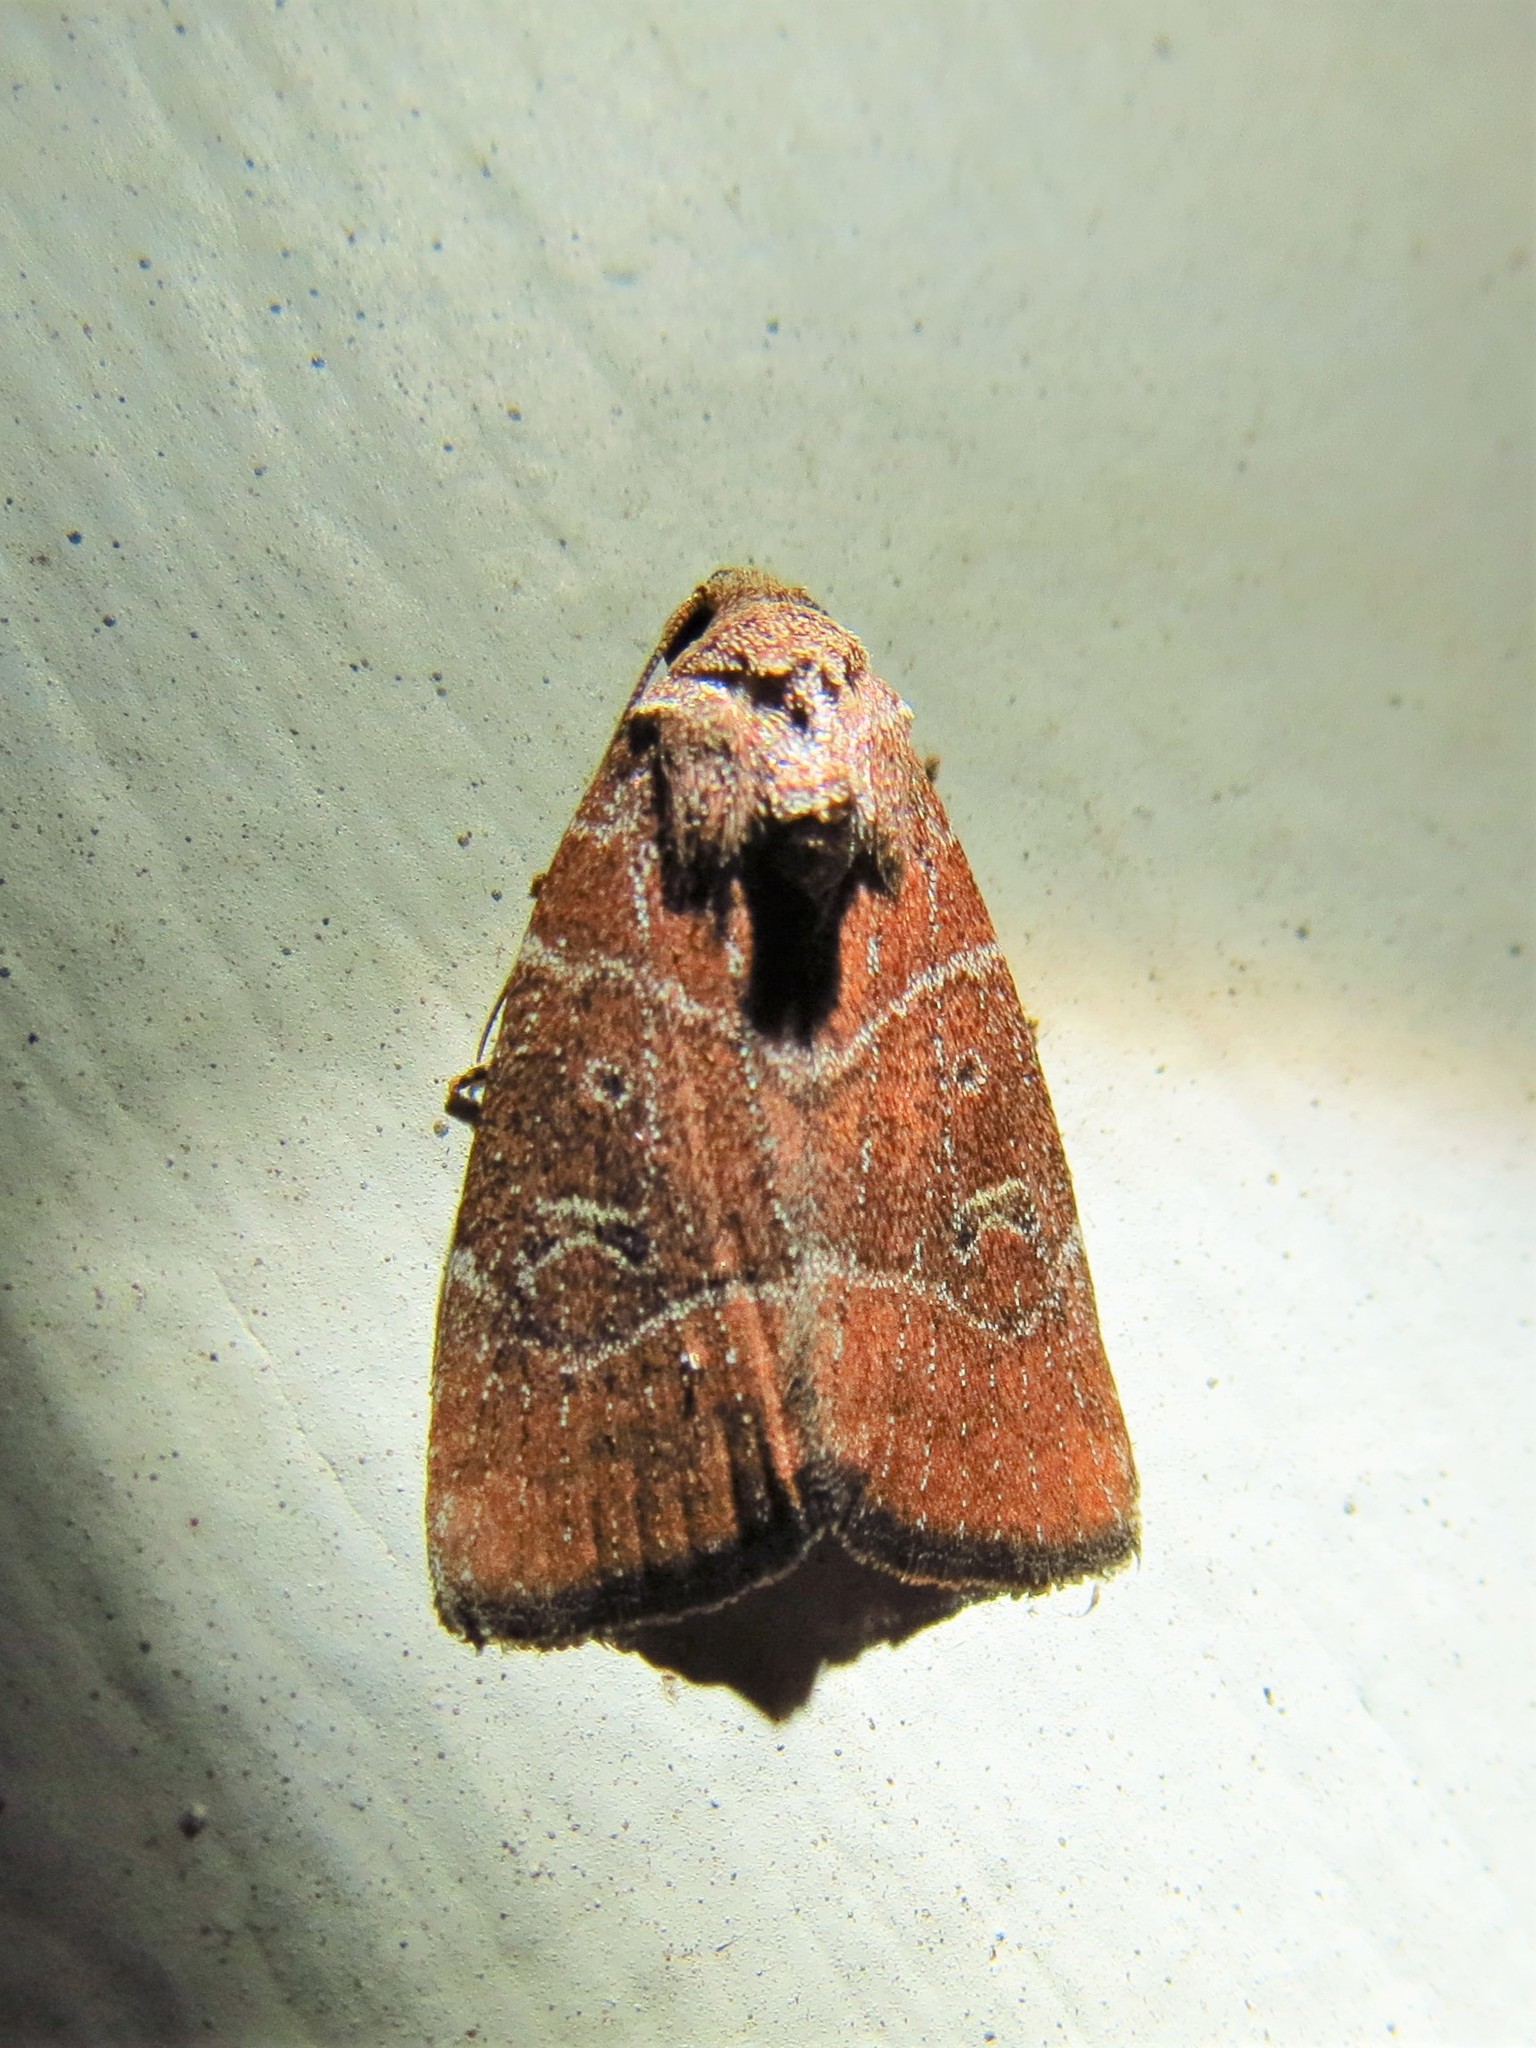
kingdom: Animalia
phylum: Arthropoda
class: Insecta
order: Lepidoptera
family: Noctuidae
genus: Elaphria
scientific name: Elaphria grata
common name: Grateful midget moth
